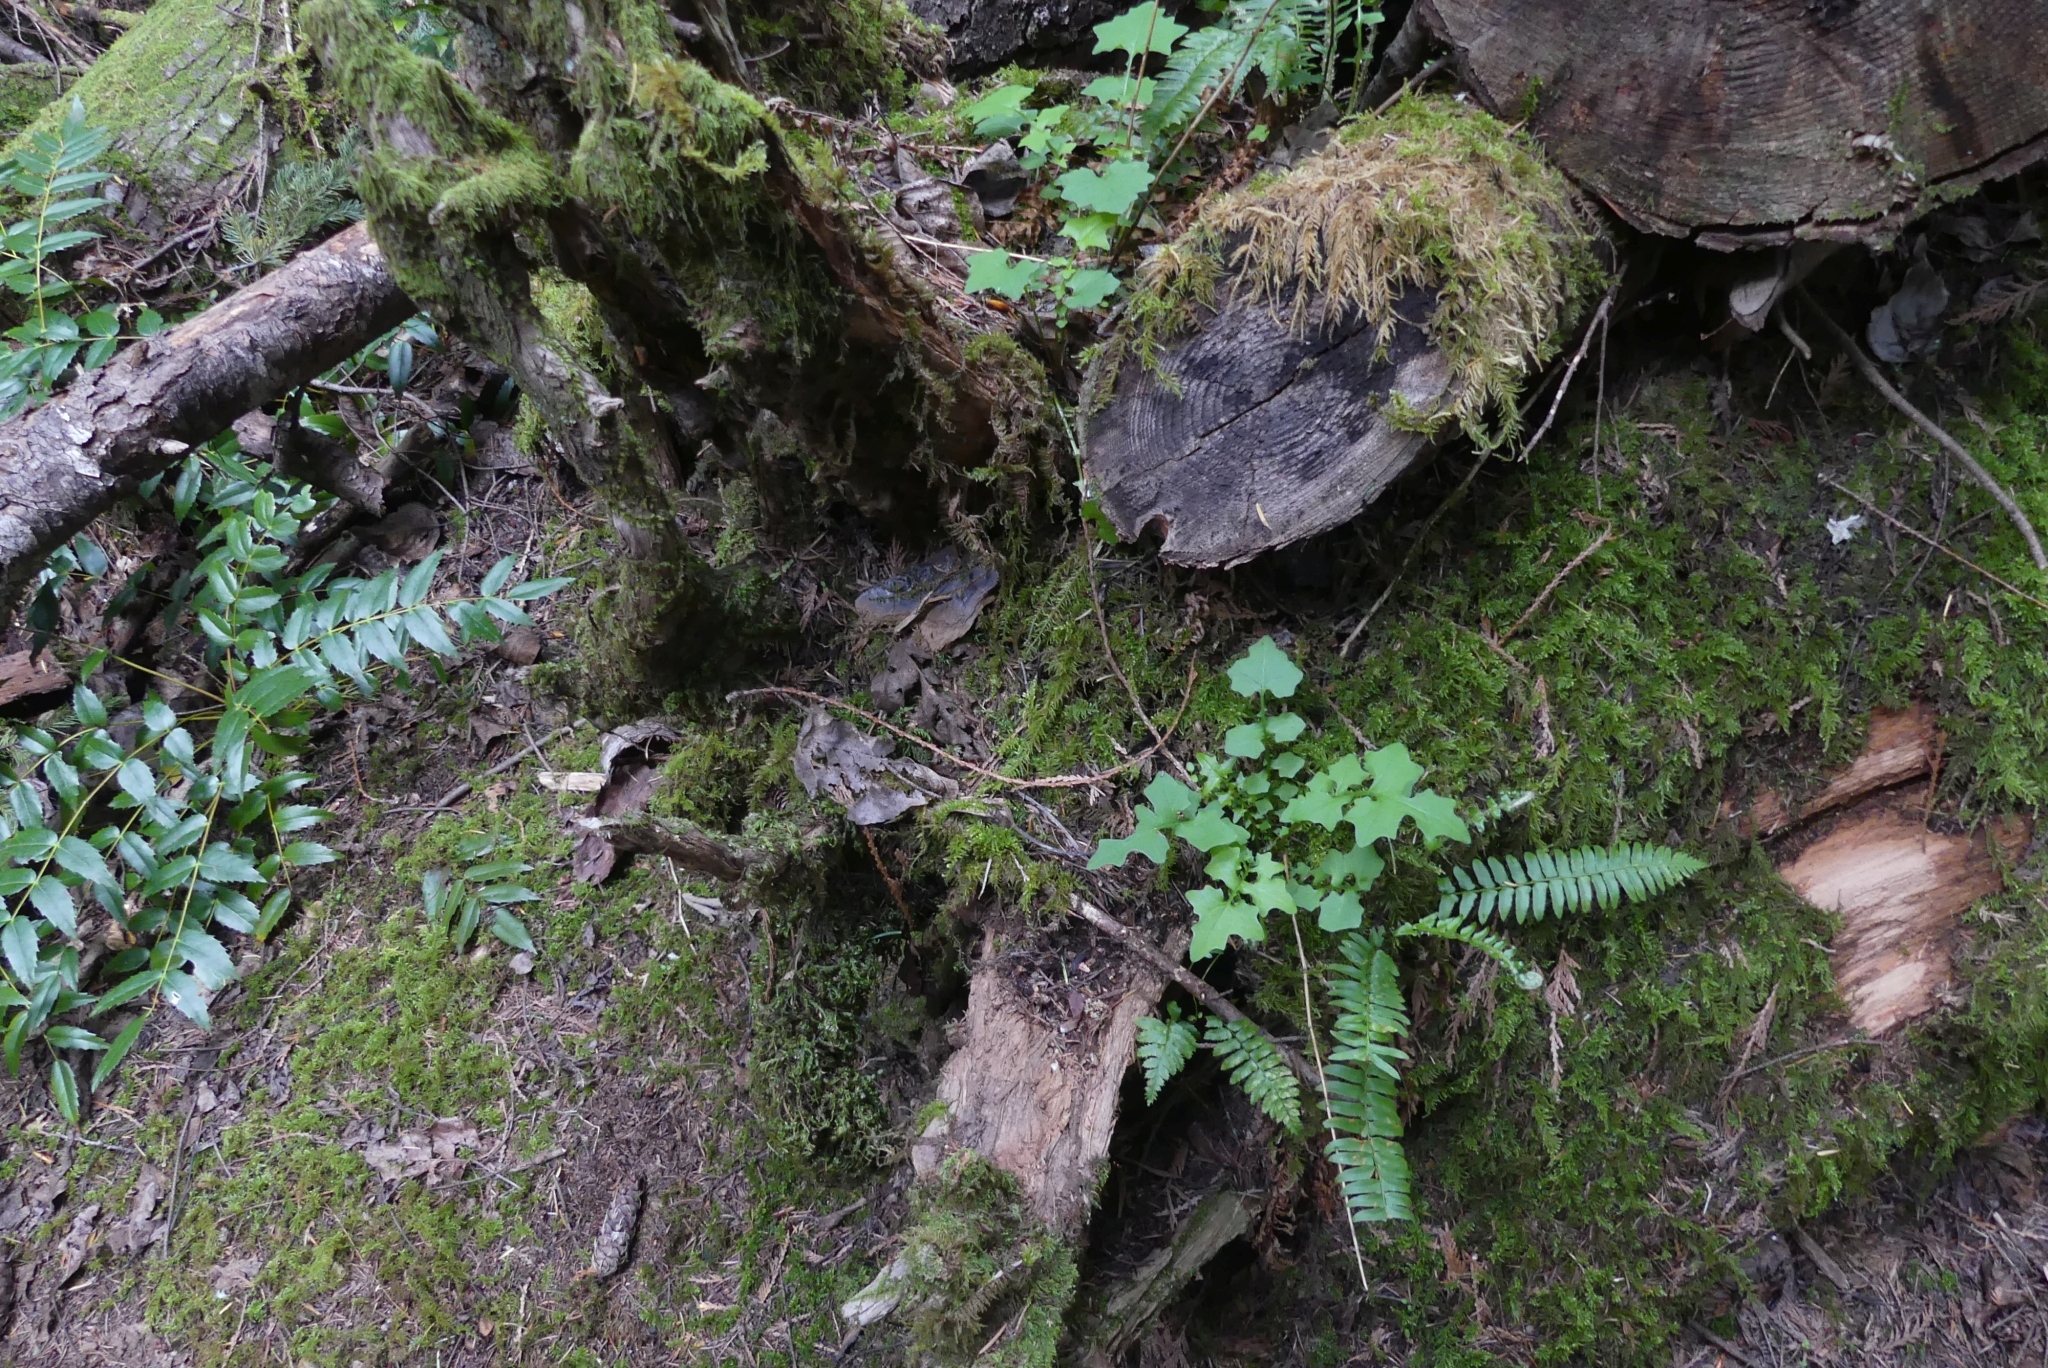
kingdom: Plantae
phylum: Tracheophyta
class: Magnoliopsida
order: Asterales
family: Asteraceae
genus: Mycelis
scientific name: Mycelis muralis
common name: Wall lettuce
